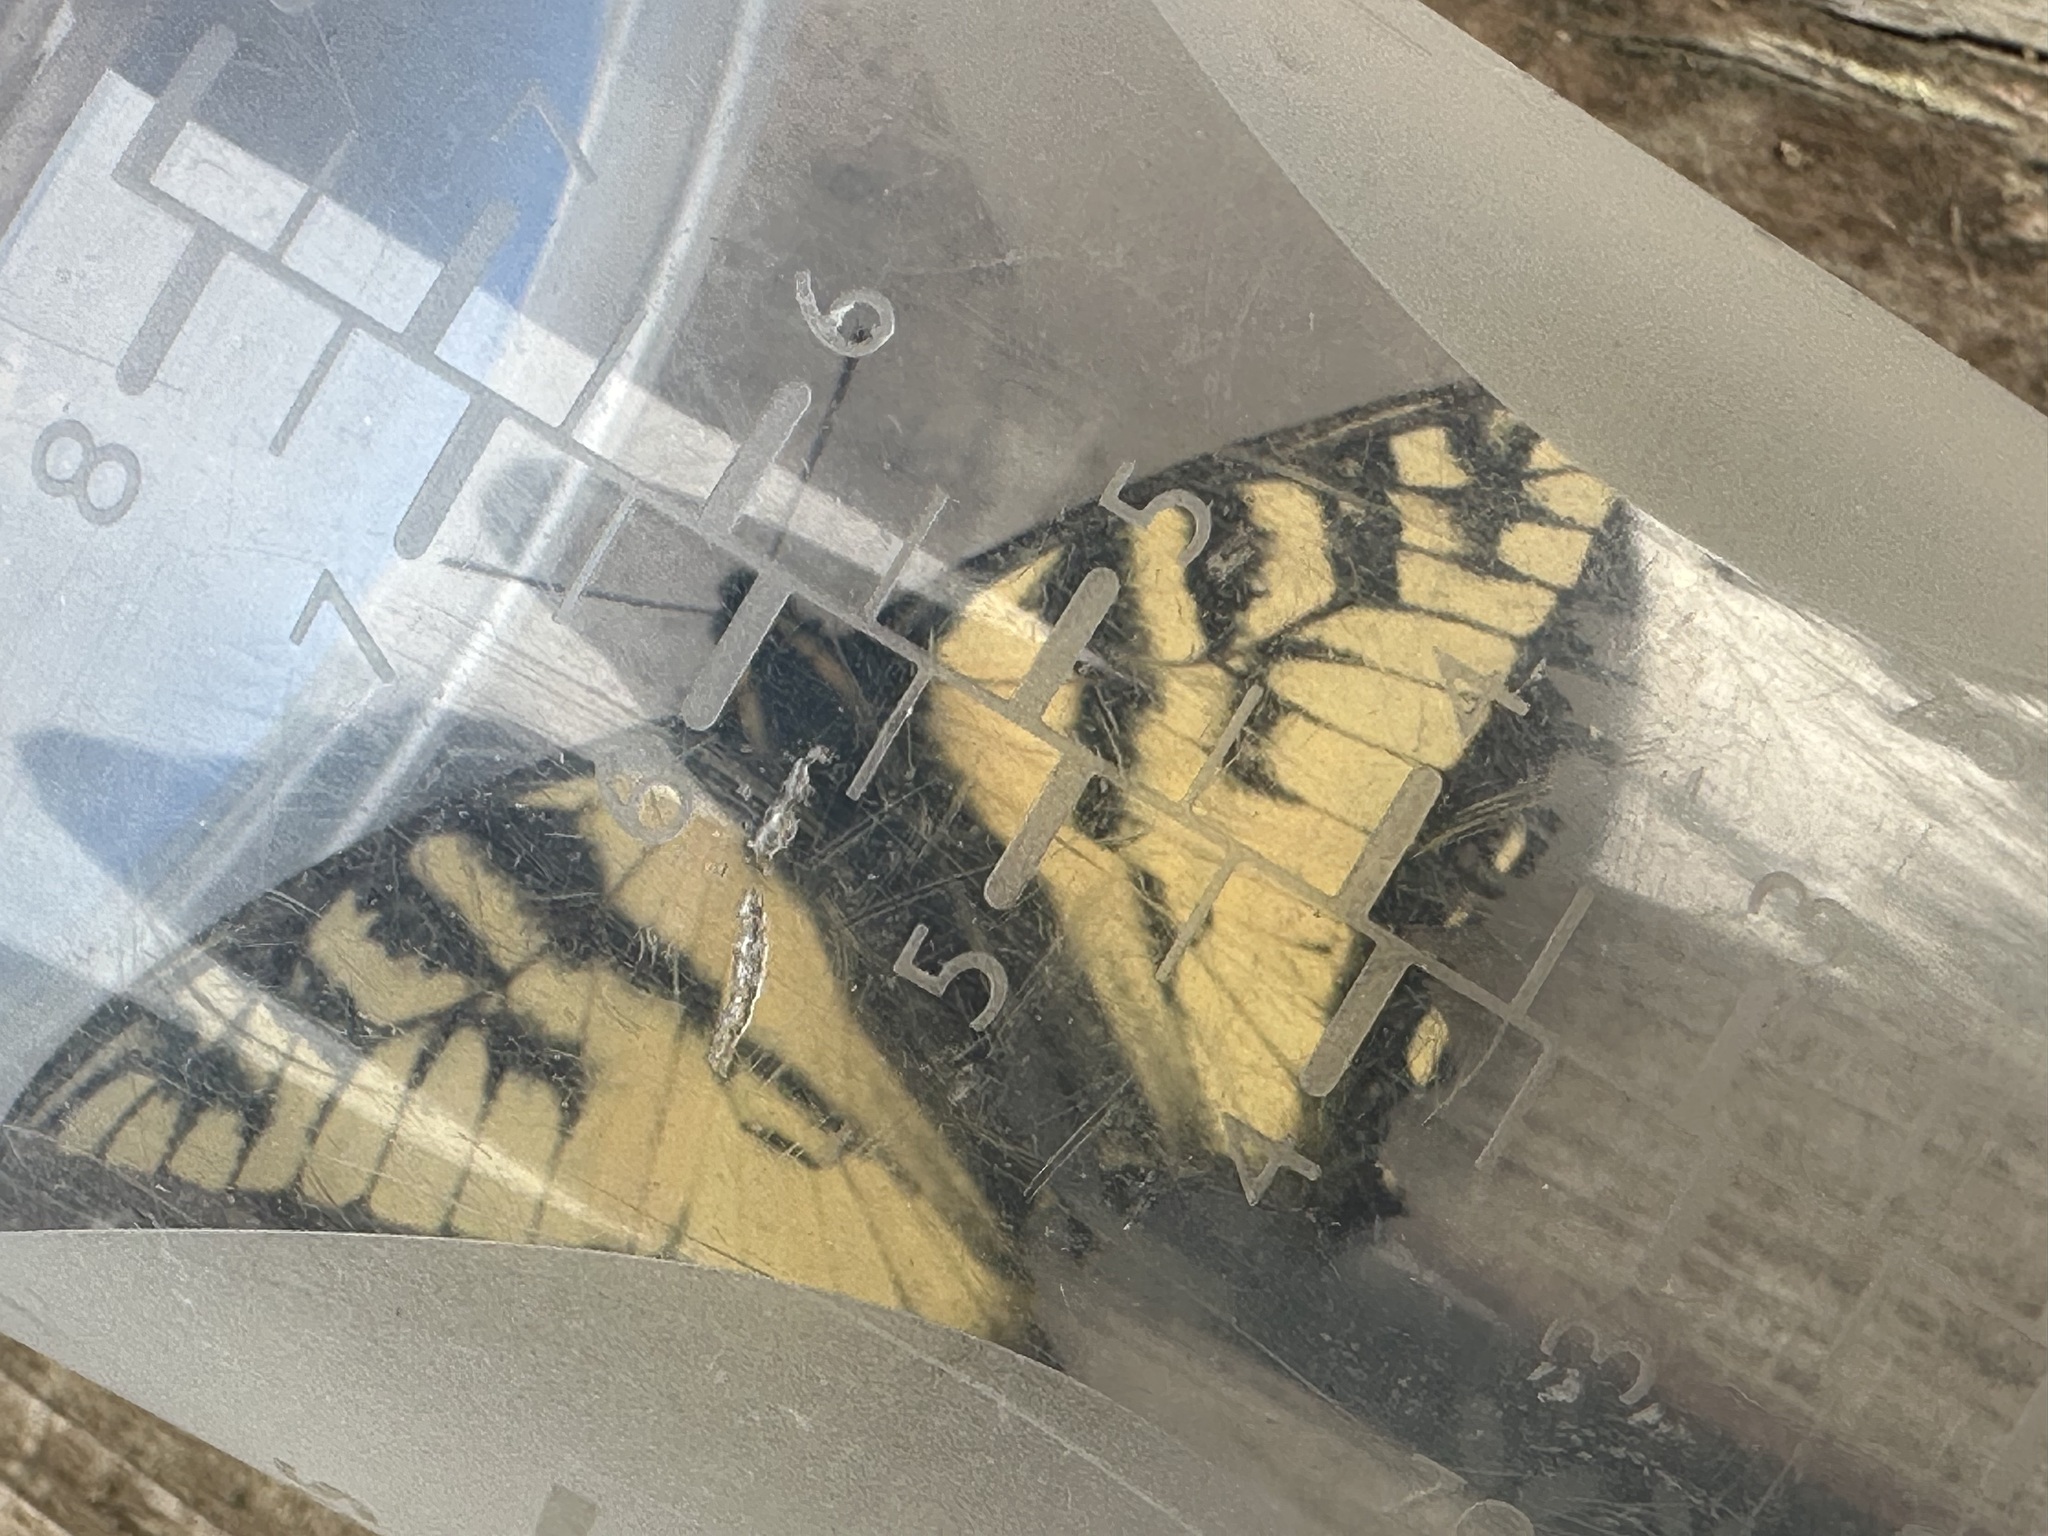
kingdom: Animalia
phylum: Arthropoda
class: Insecta
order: Lepidoptera
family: Papilionidae
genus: Papilio
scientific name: Papilio canadensis
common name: Canadian tiger swallowtail
